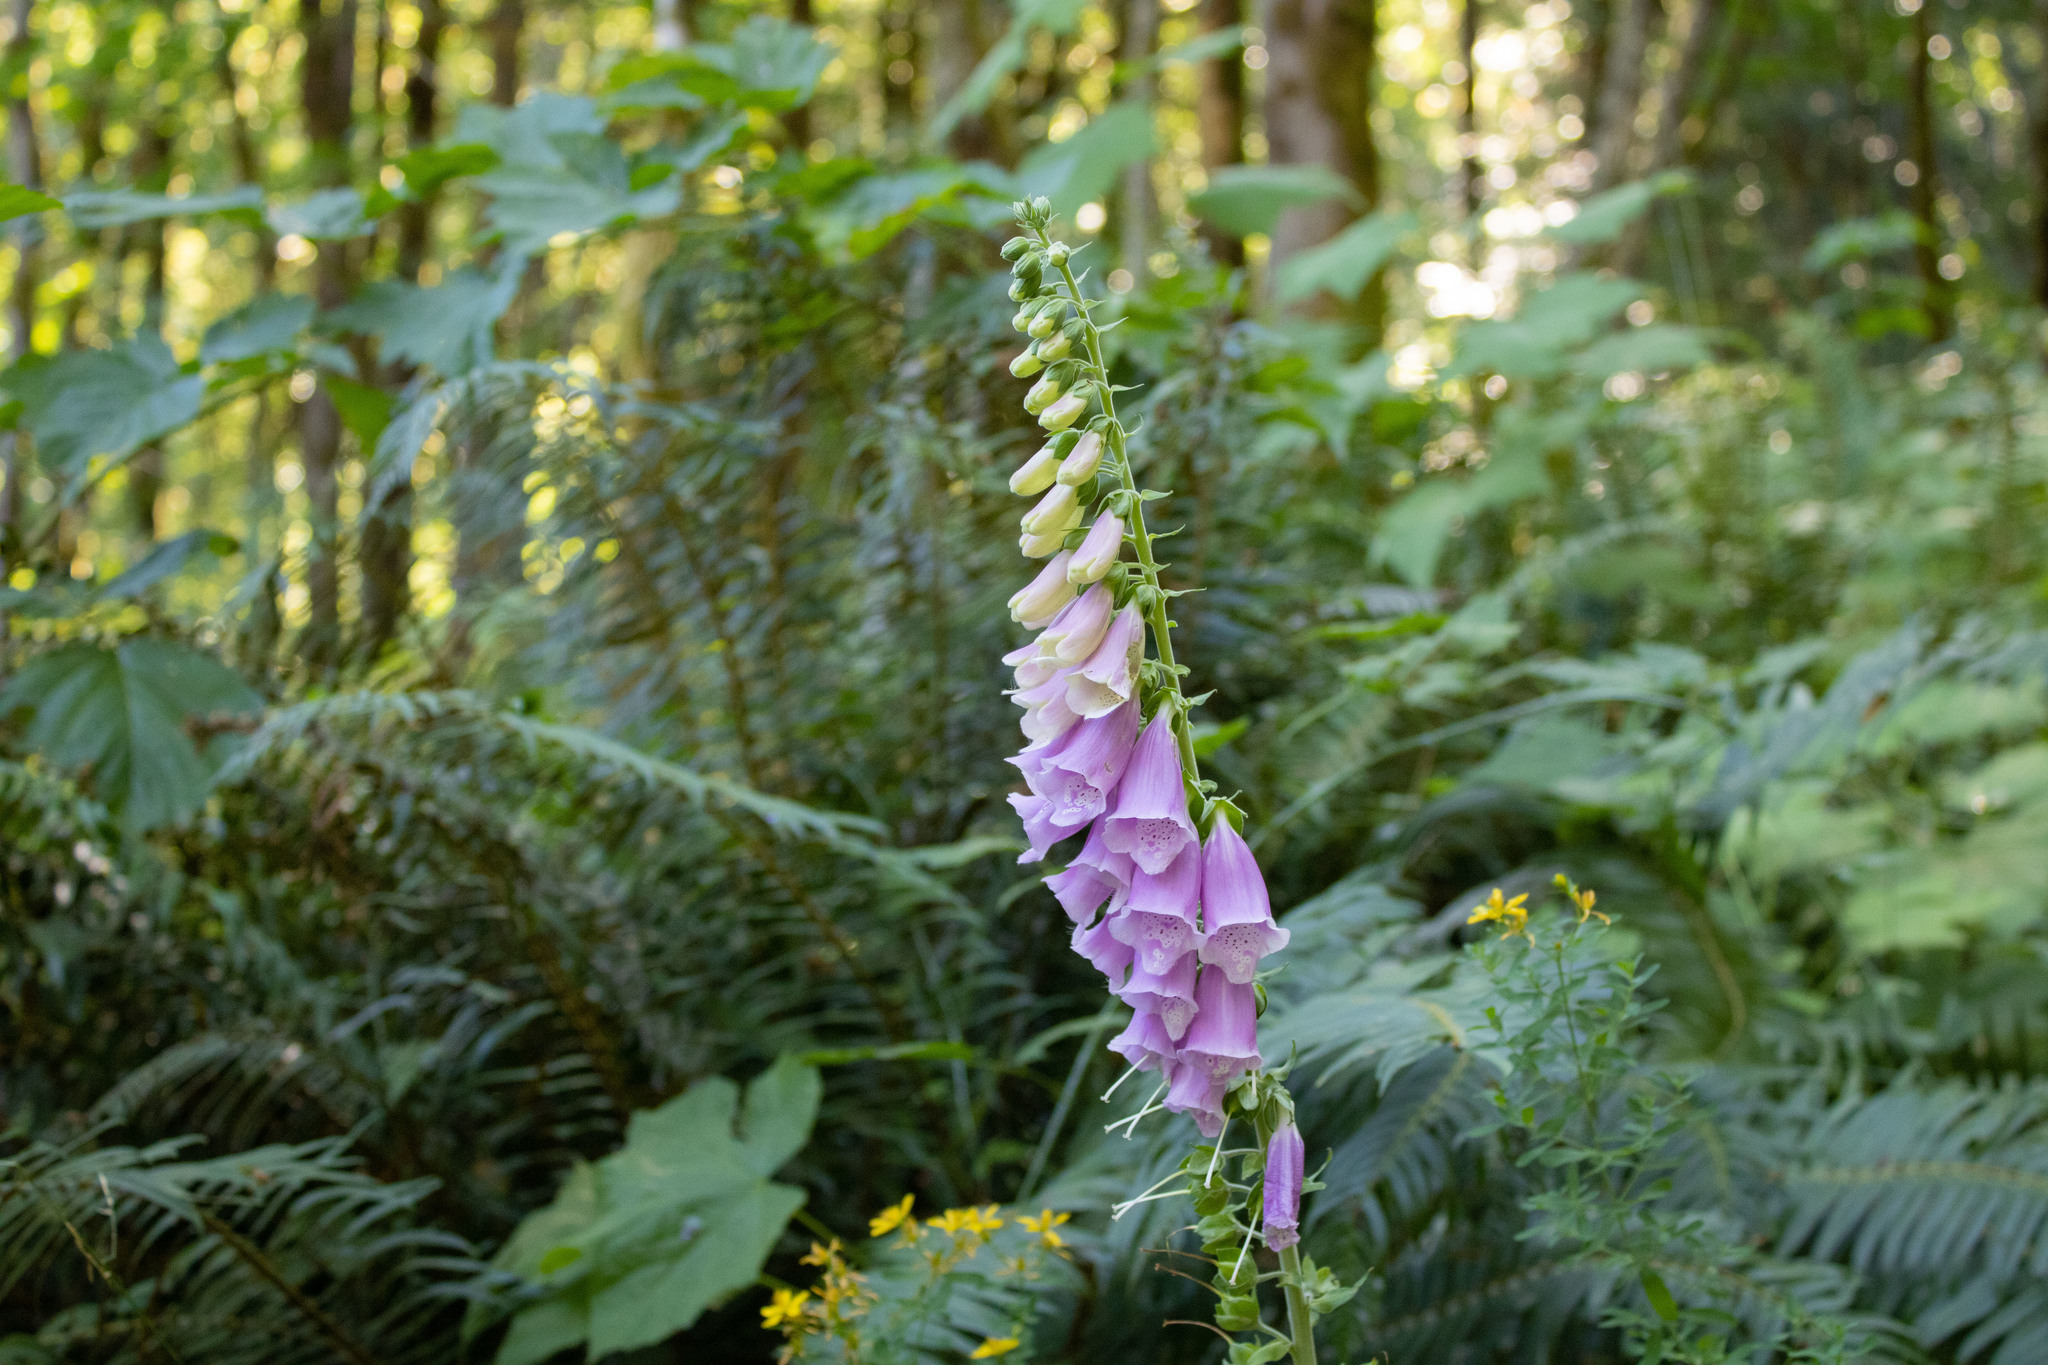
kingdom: Plantae
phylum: Tracheophyta
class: Magnoliopsida
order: Lamiales
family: Plantaginaceae
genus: Digitalis
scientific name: Digitalis purpurea
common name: Foxglove
